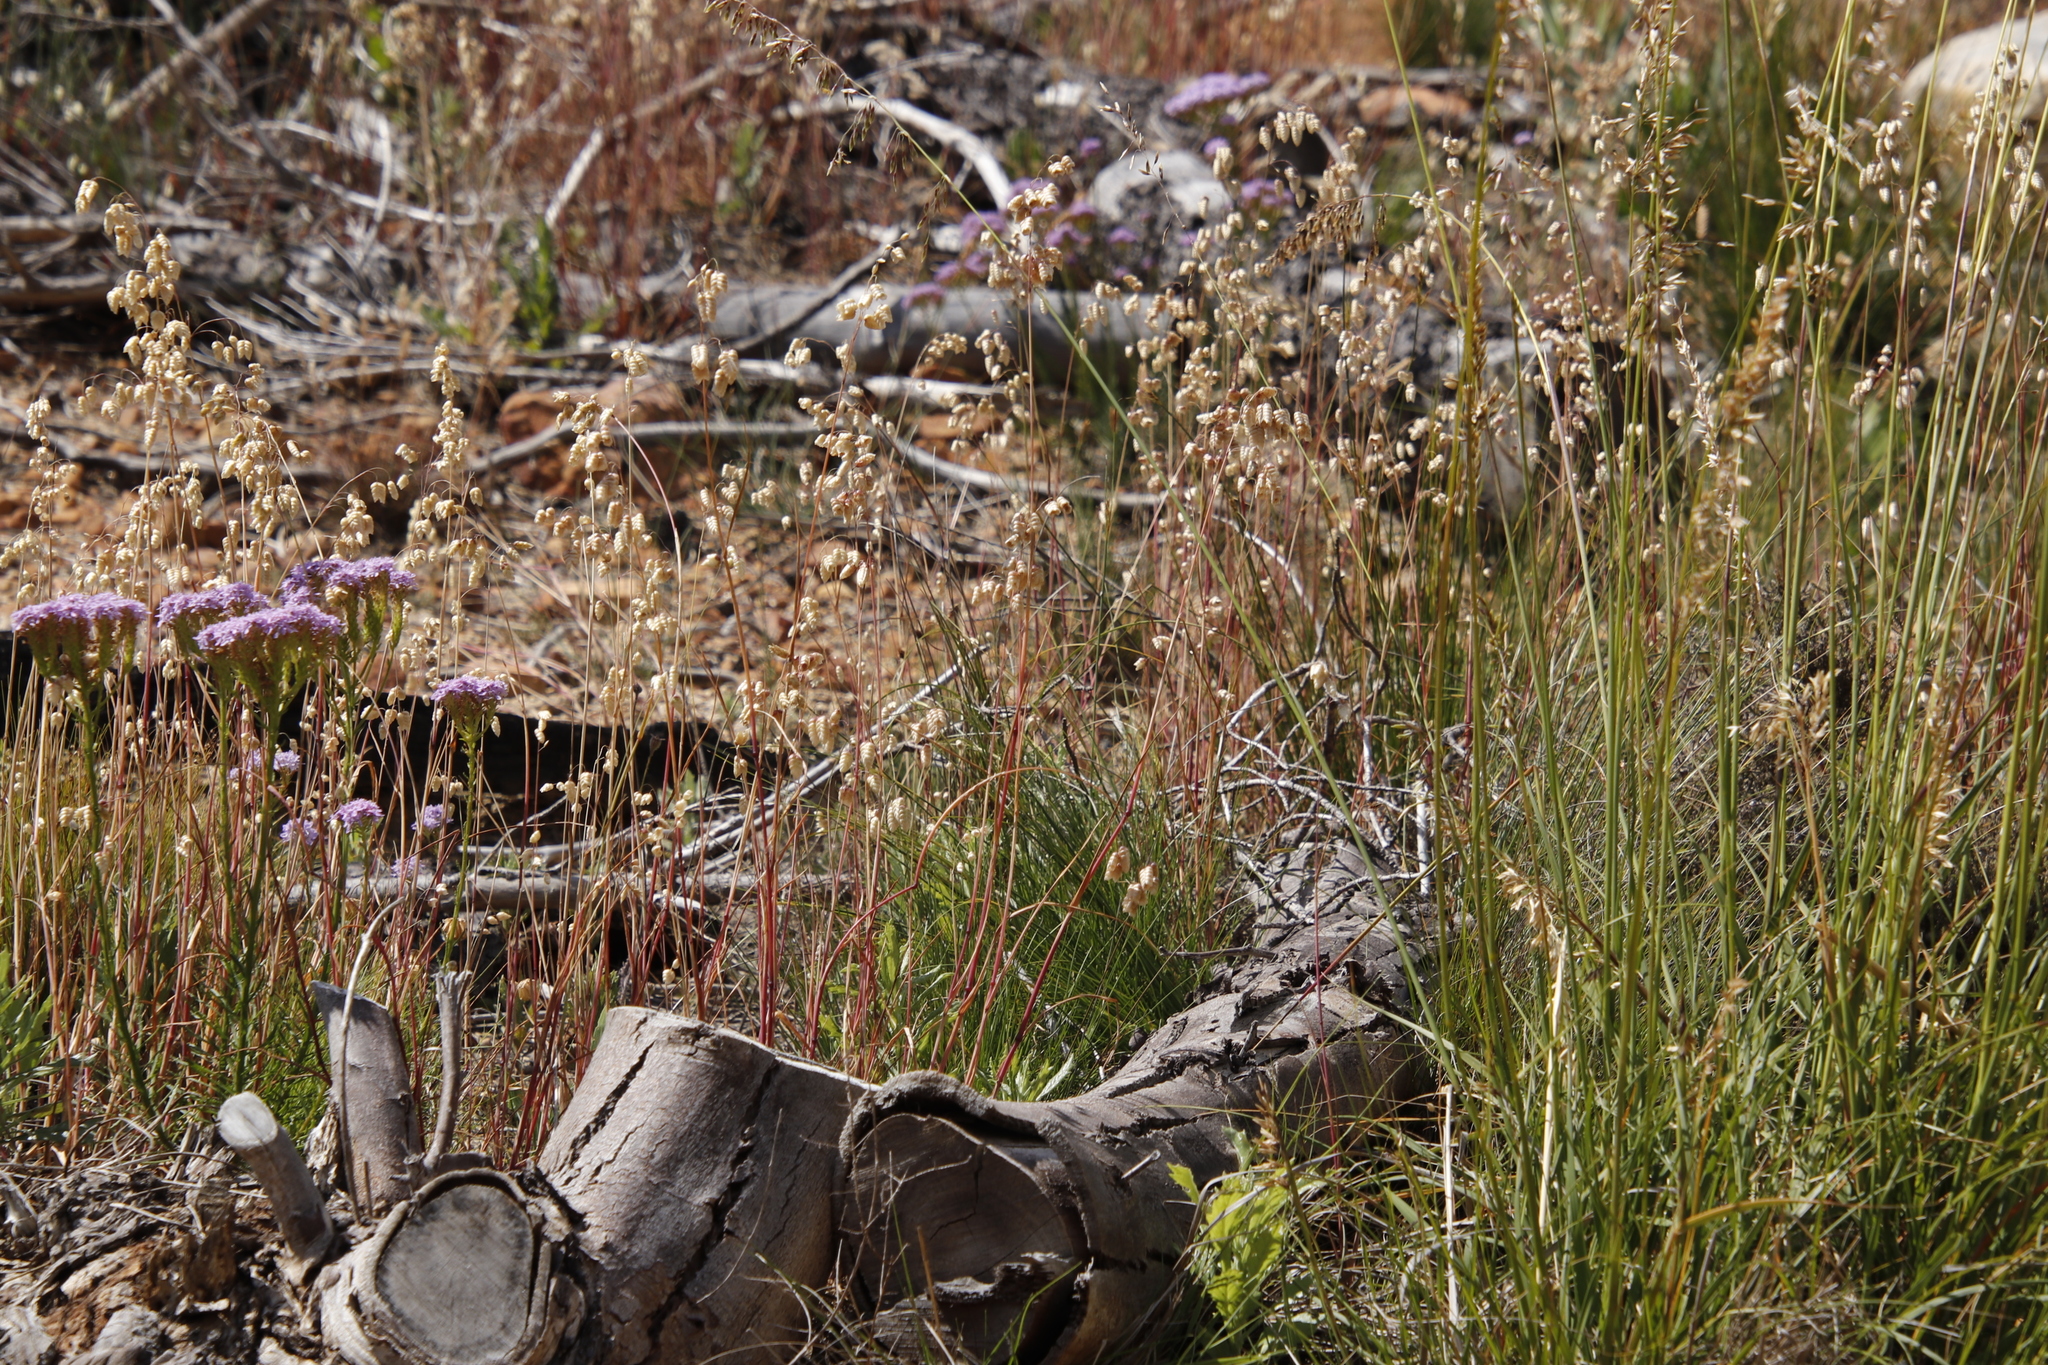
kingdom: Plantae
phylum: Tracheophyta
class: Liliopsida
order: Poales
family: Poaceae
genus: Briza
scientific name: Briza maxima
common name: Big quakinggrass
